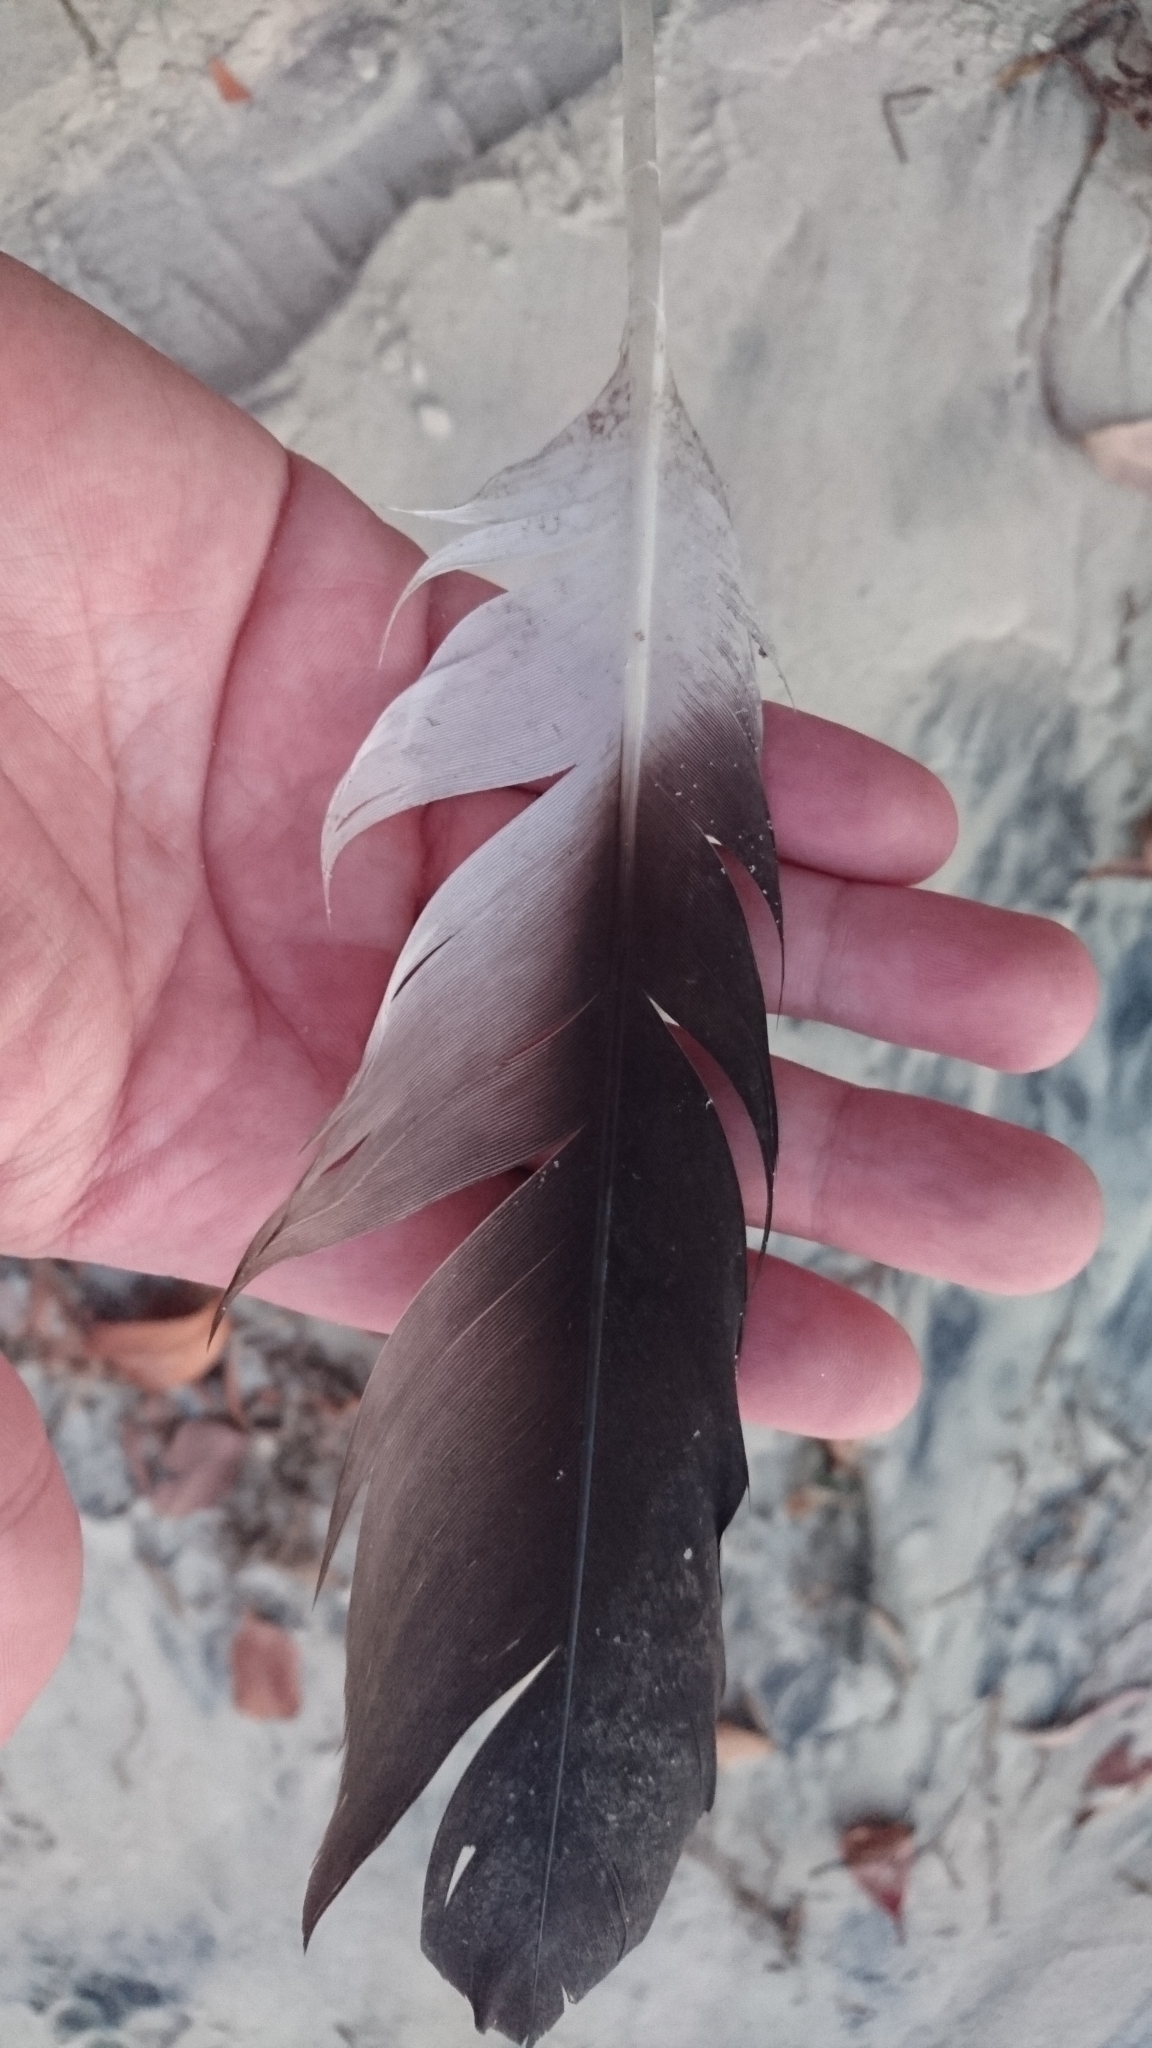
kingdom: Animalia
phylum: Chordata
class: Aves
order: Pelecaniformes
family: Pelecanidae
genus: Pelecanus
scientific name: Pelecanus conspicillatus
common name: Australian pelican
